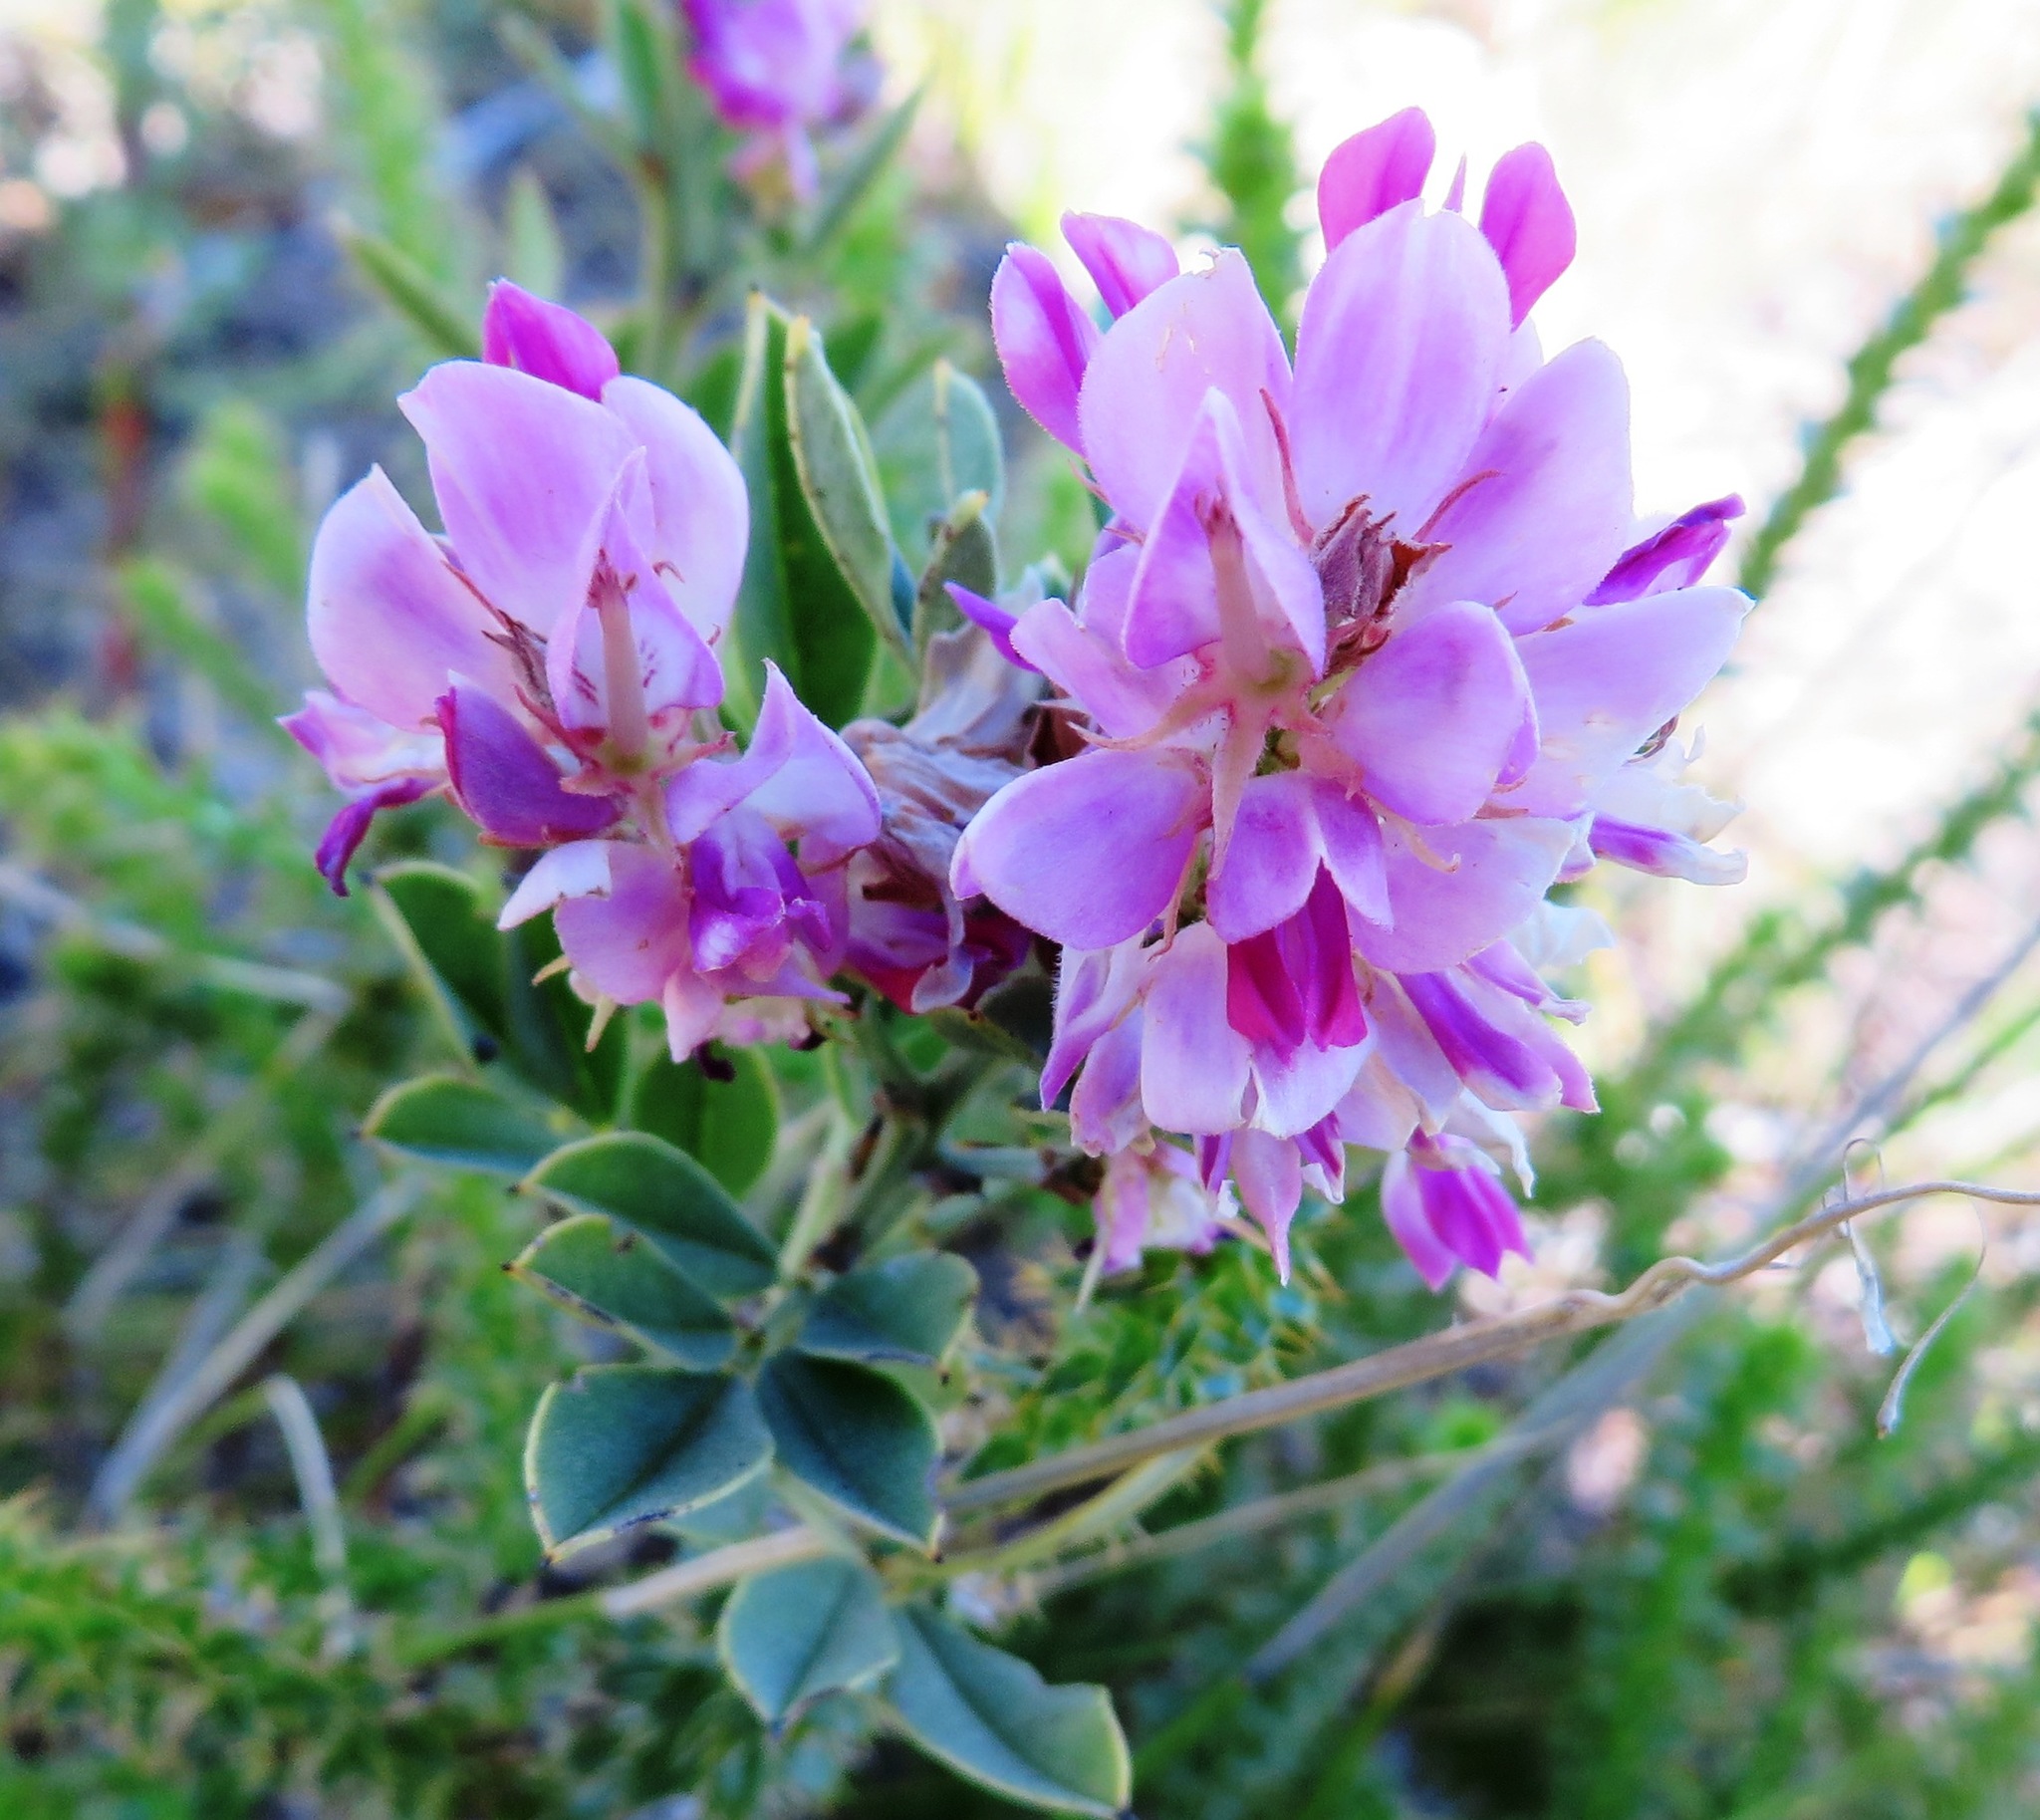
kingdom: Plantae
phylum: Tracheophyta
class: Magnoliopsida
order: Fabales
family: Fabaceae
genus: Indigofera
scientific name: Indigofera cytisoides
